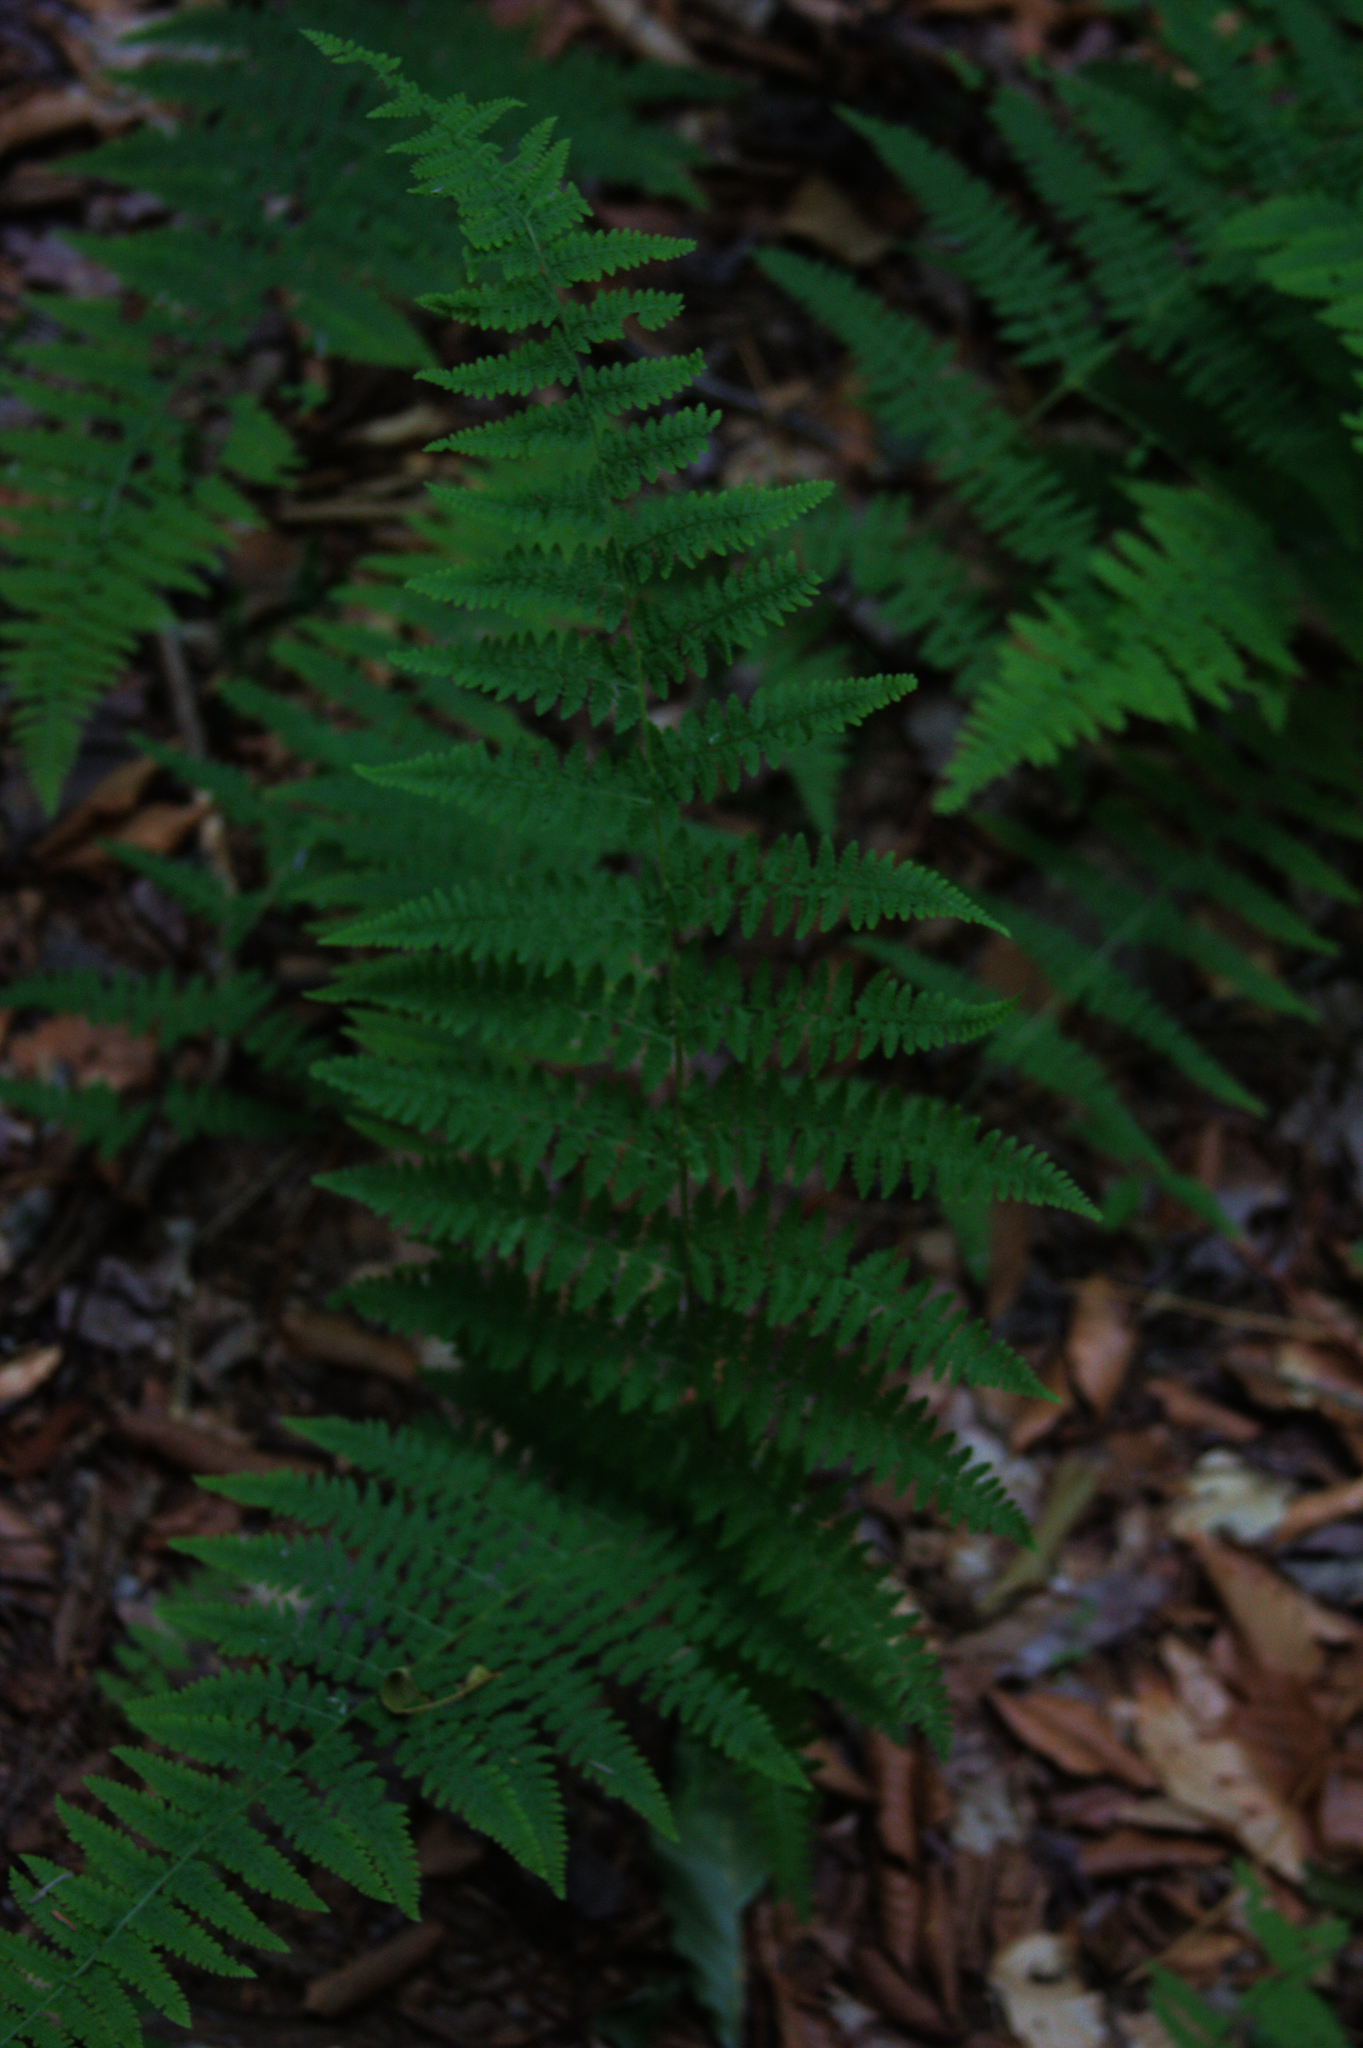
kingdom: Plantae
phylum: Tracheophyta
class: Polypodiopsida
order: Polypodiales
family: Dennstaedtiaceae
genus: Sitobolium
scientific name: Sitobolium punctilobum
